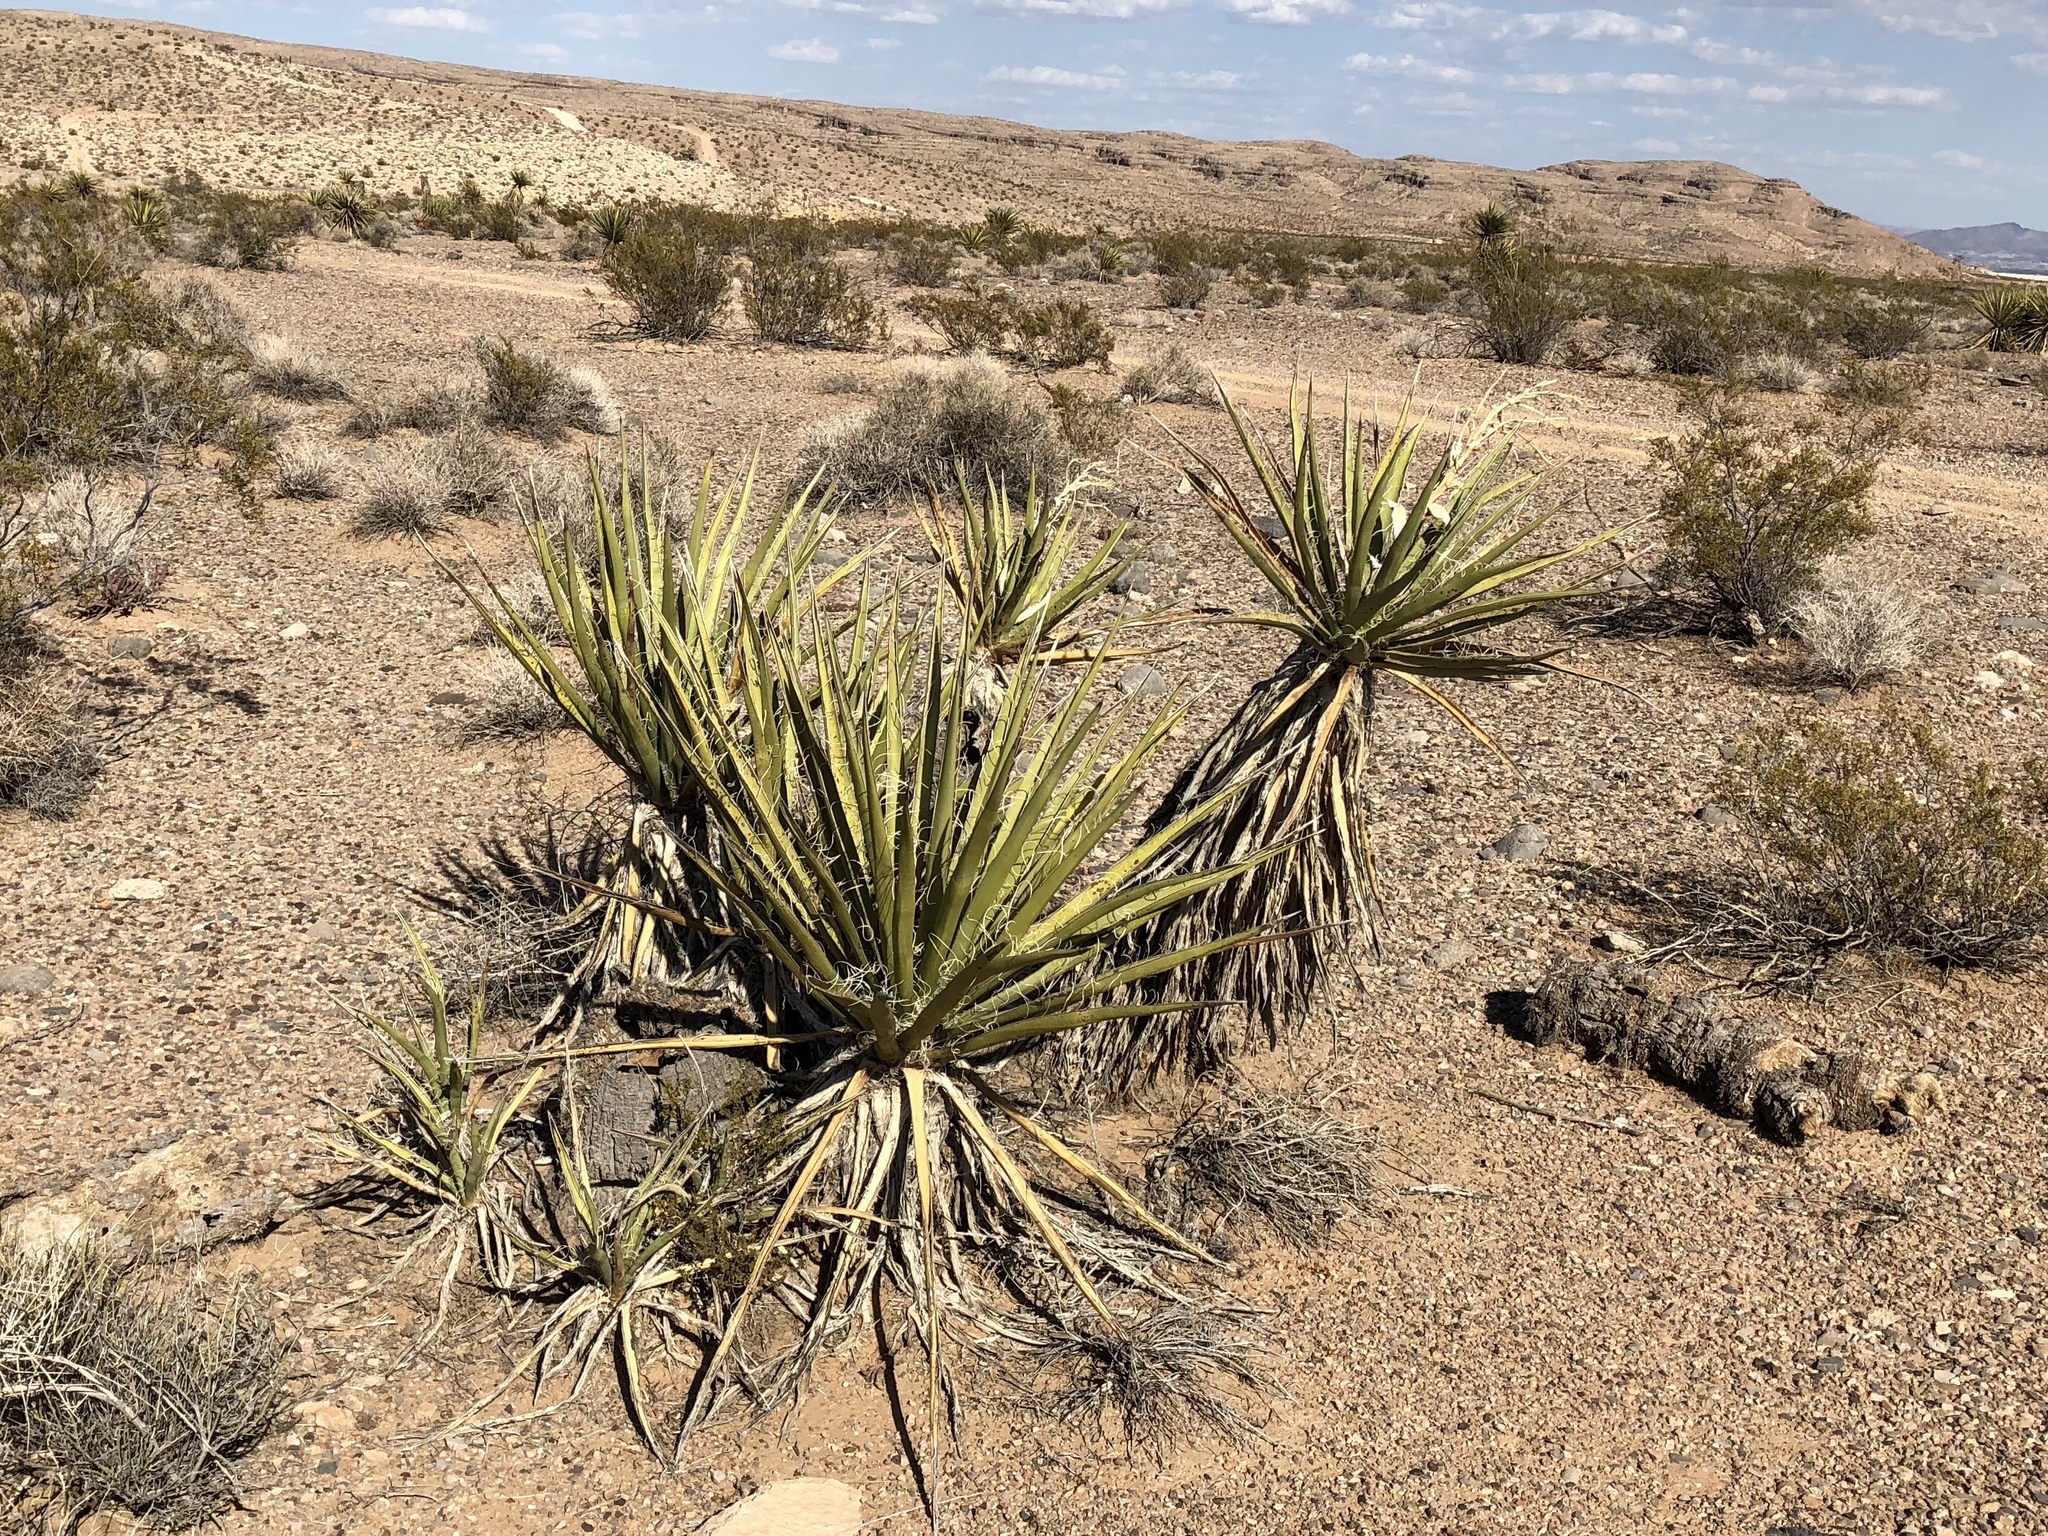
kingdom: Plantae
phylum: Tracheophyta
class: Liliopsida
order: Asparagales
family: Asparagaceae
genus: Yucca
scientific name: Yucca schidigera
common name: Mojave yucca
